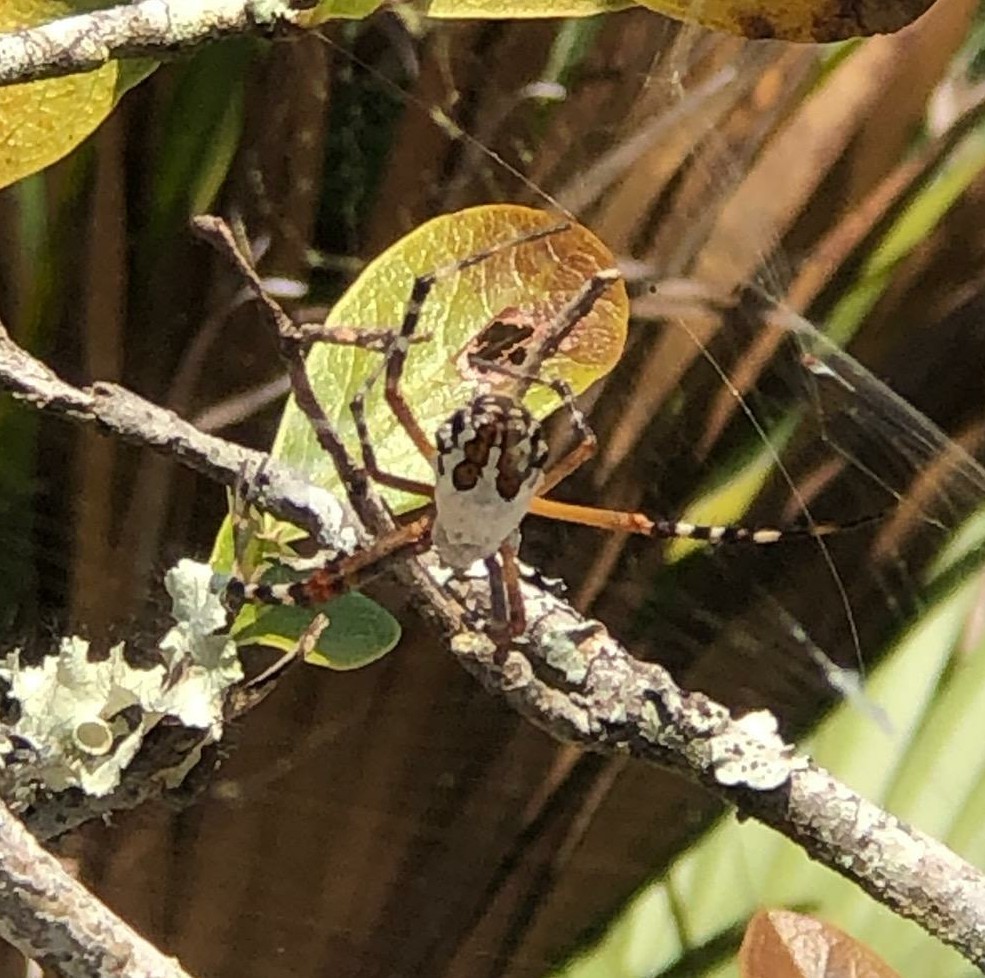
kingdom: Animalia
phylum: Arthropoda
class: Arachnida
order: Araneae
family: Araneidae
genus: Argiope
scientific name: Argiope florida
